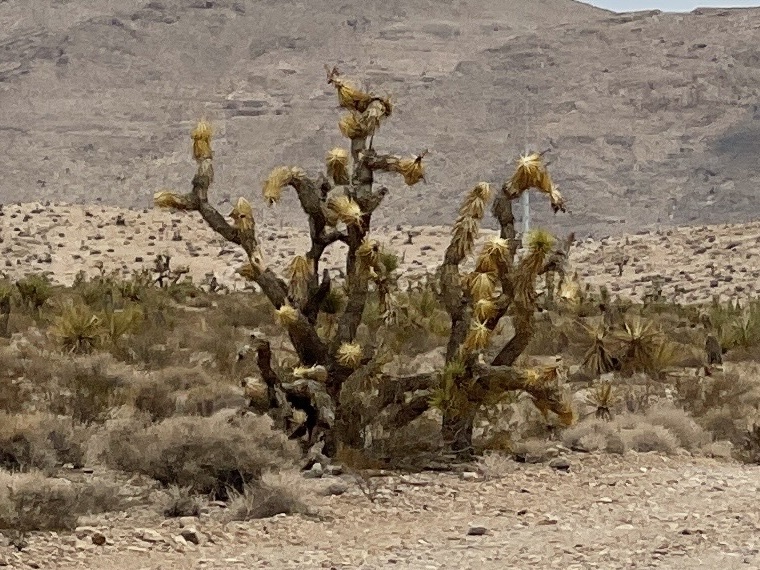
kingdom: Plantae
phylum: Tracheophyta
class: Liliopsida
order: Asparagales
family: Asparagaceae
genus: Yucca
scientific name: Yucca brevifolia
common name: Joshua tree
